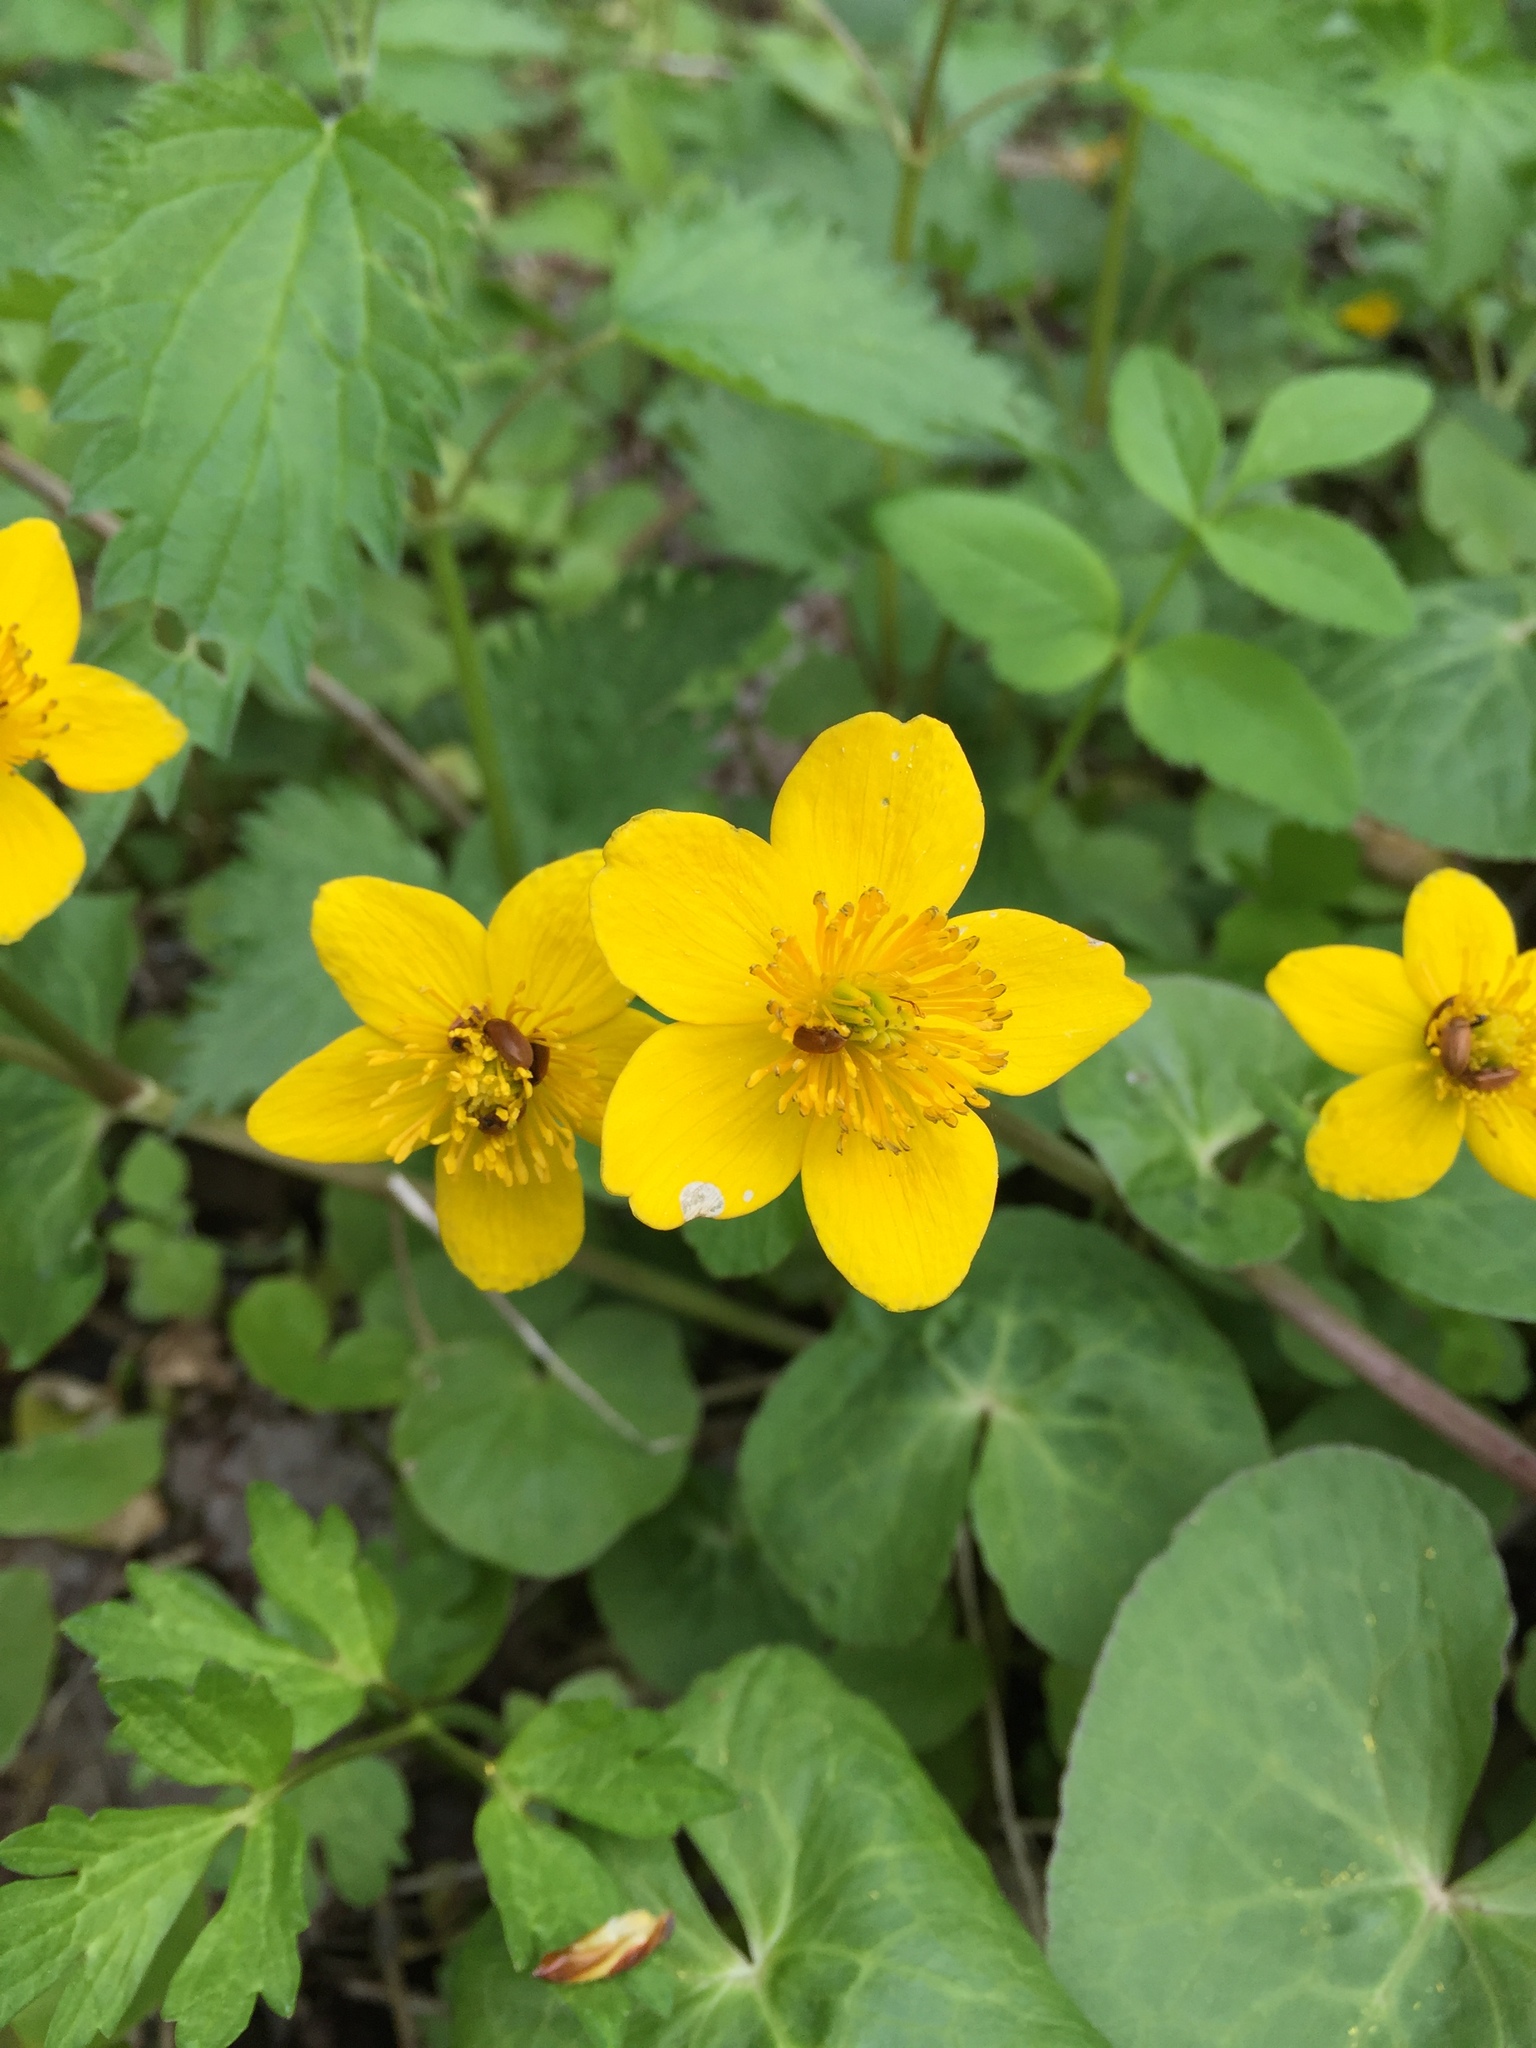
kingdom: Plantae
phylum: Tracheophyta
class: Magnoliopsida
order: Ranunculales
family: Ranunculaceae
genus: Caltha
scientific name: Caltha palustris
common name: Marsh marigold
